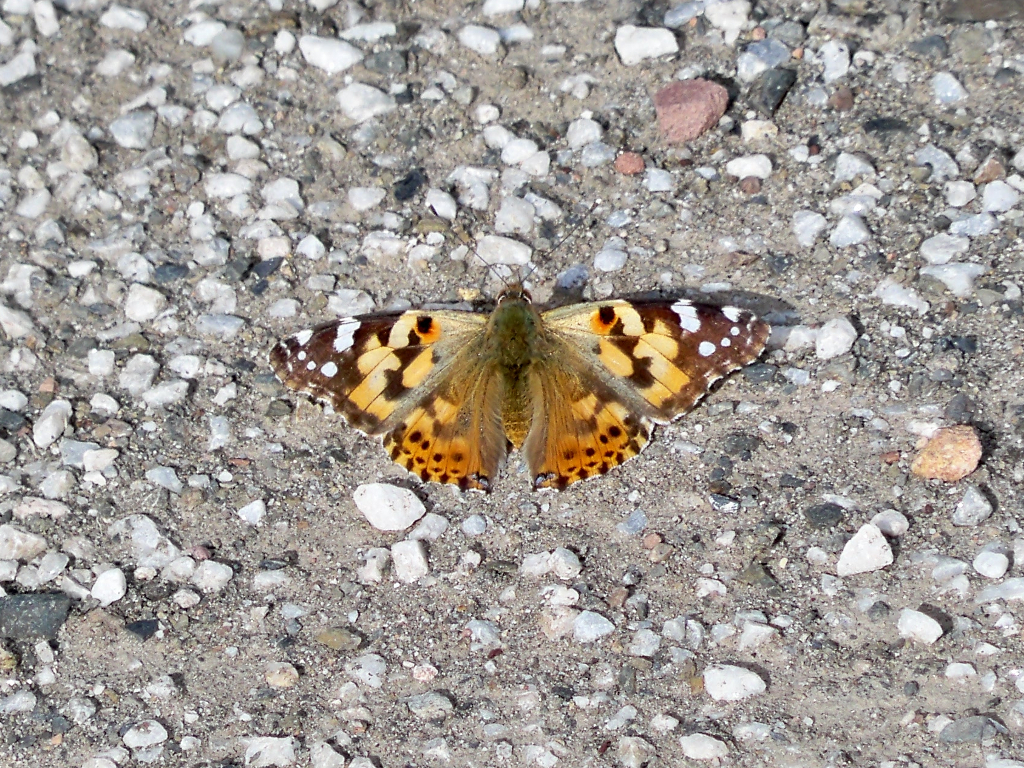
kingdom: Animalia
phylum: Arthropoda
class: Insecta
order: Lepidoptera
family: Nymphalidae
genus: Vanessa
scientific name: Vanessa cardui
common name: Painted lady
